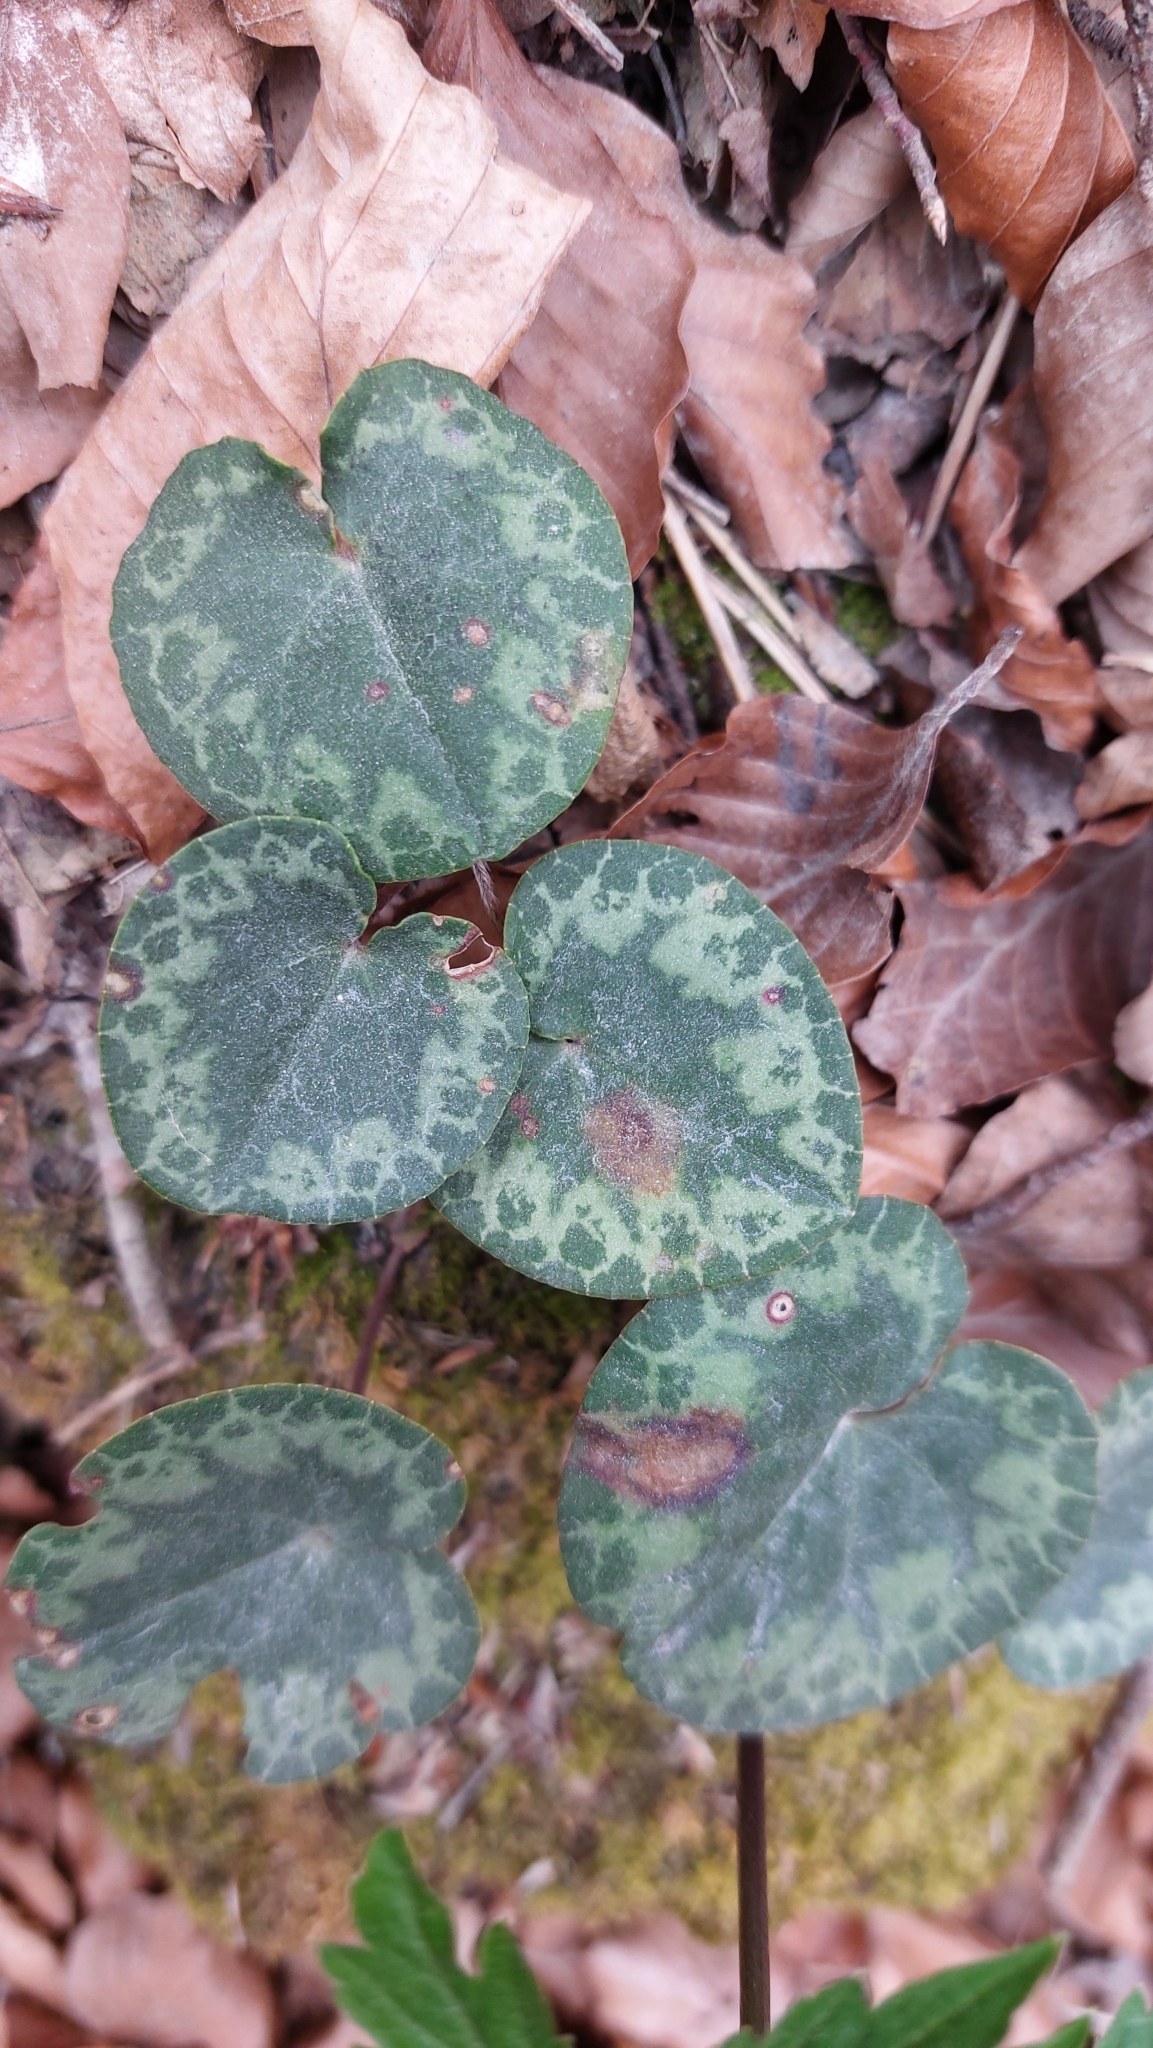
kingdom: Plantae
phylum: Tracheophyta
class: Magnoliopsida
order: Ericales
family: Primulaceae
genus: Cyclamen
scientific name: Cyclamen purpurascens
